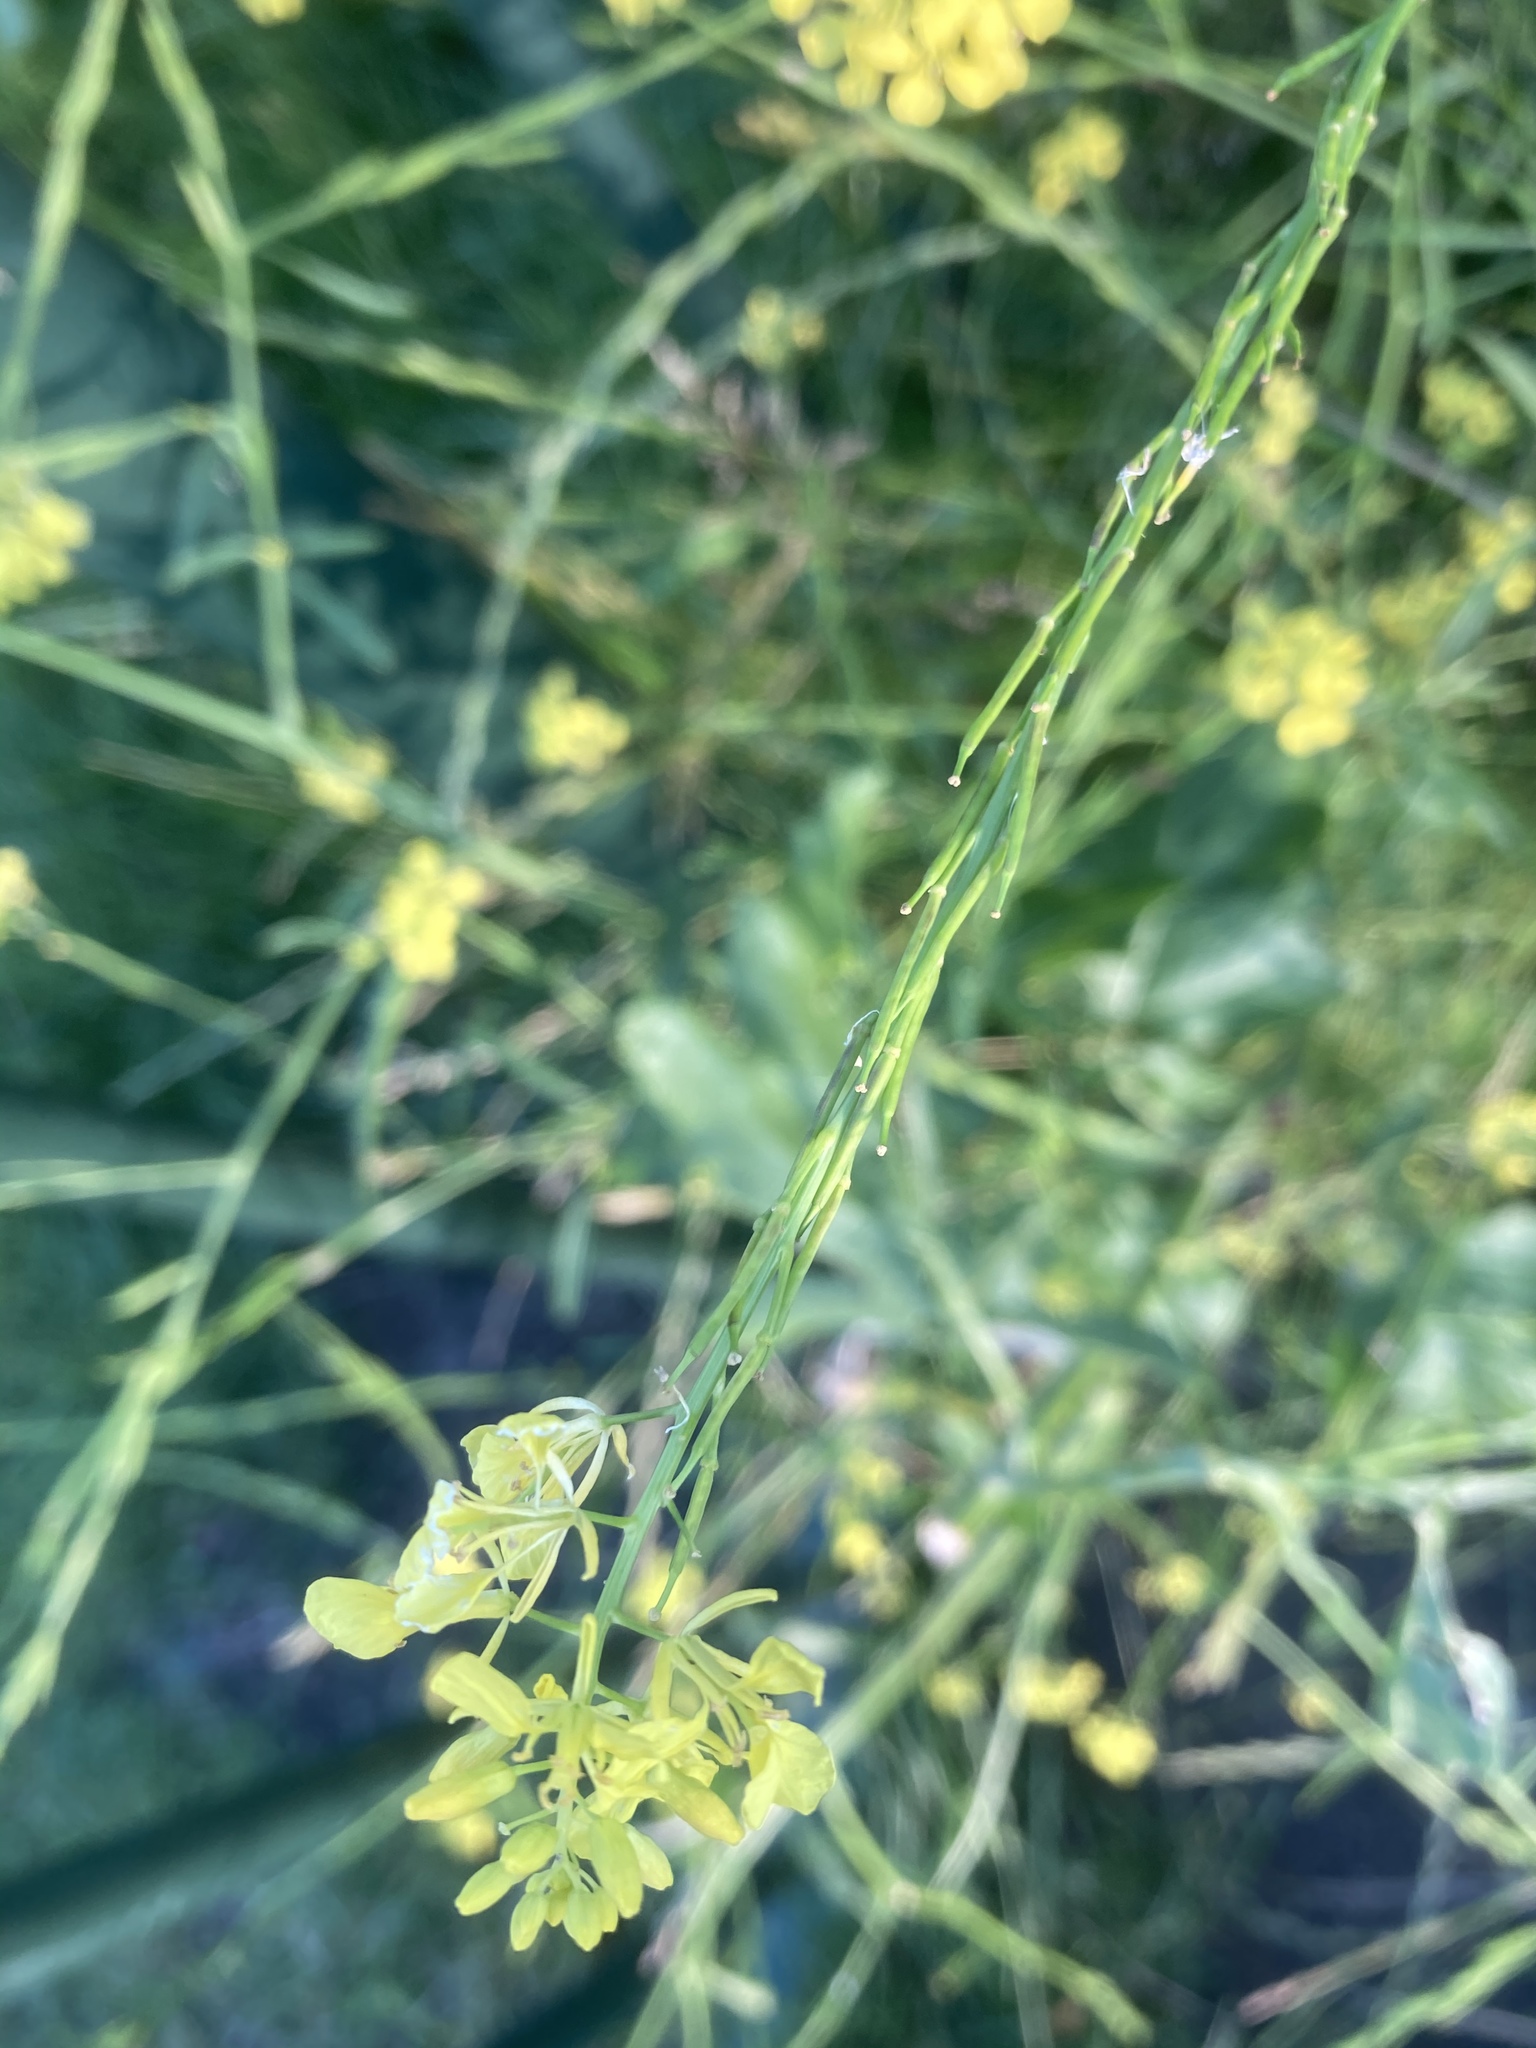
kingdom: Plantae
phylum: Tracheophyta
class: Magnoliopsida
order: Brassicales
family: Brassicaceae
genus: Brassica
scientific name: Brassica nigra
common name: Black mustard
